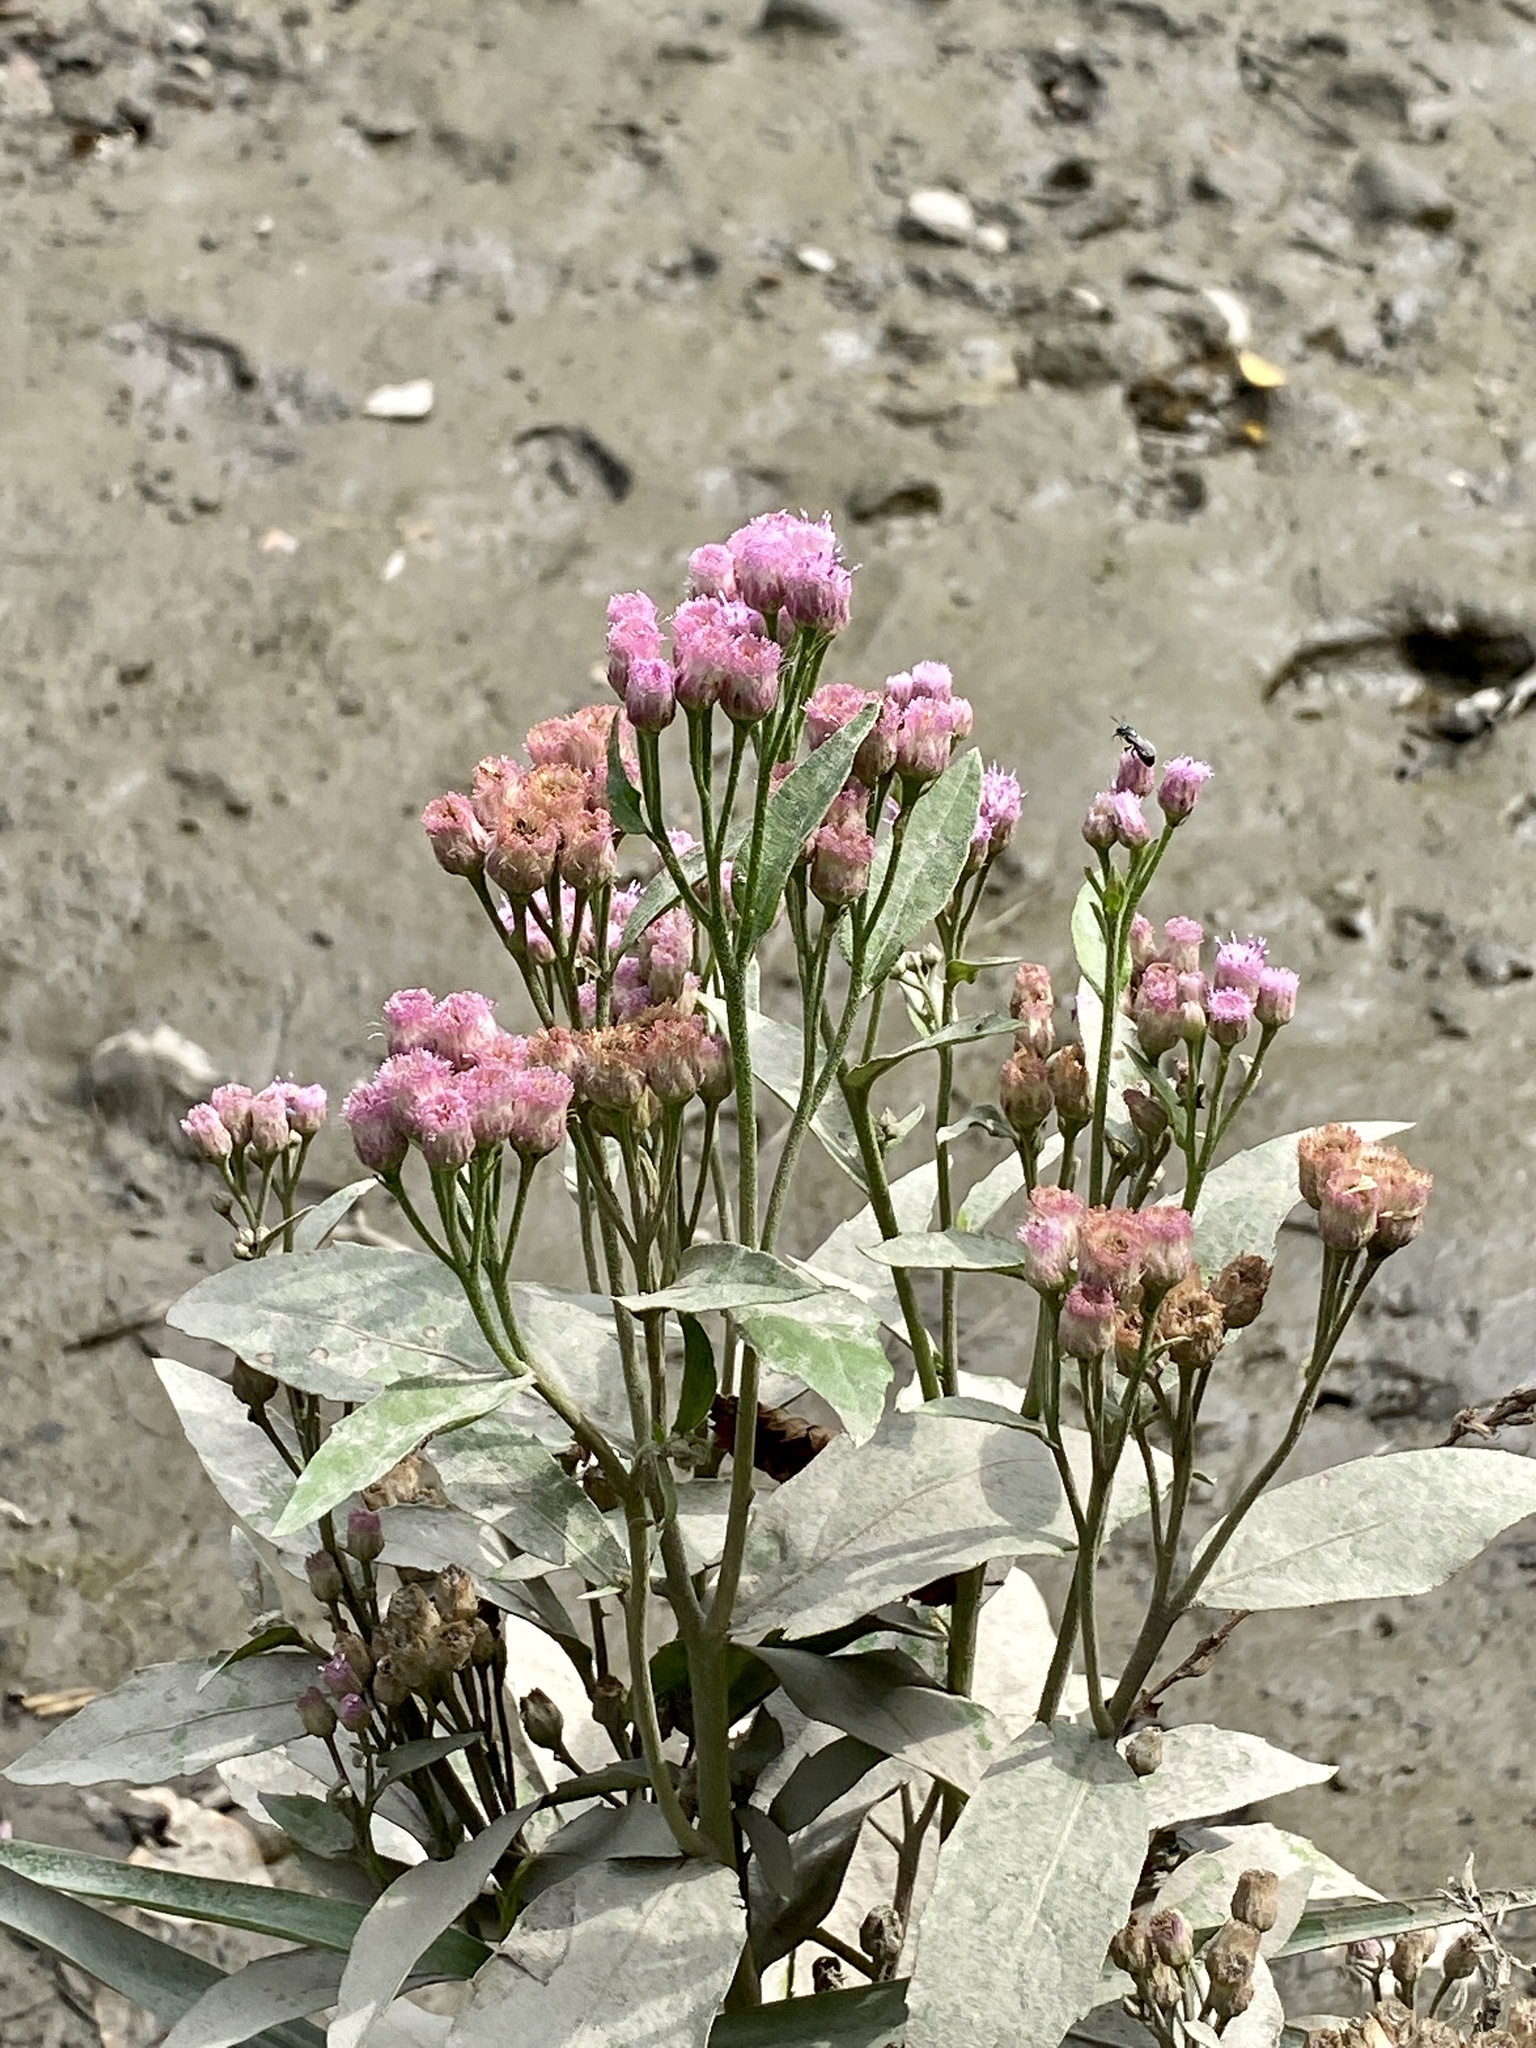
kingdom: Plantae
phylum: Tracheophyta
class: Magnoliopsida
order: Asterales
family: Asteraceae
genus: Pluchea
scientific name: Pluchea odorata
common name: Saltmarsh fleabane
